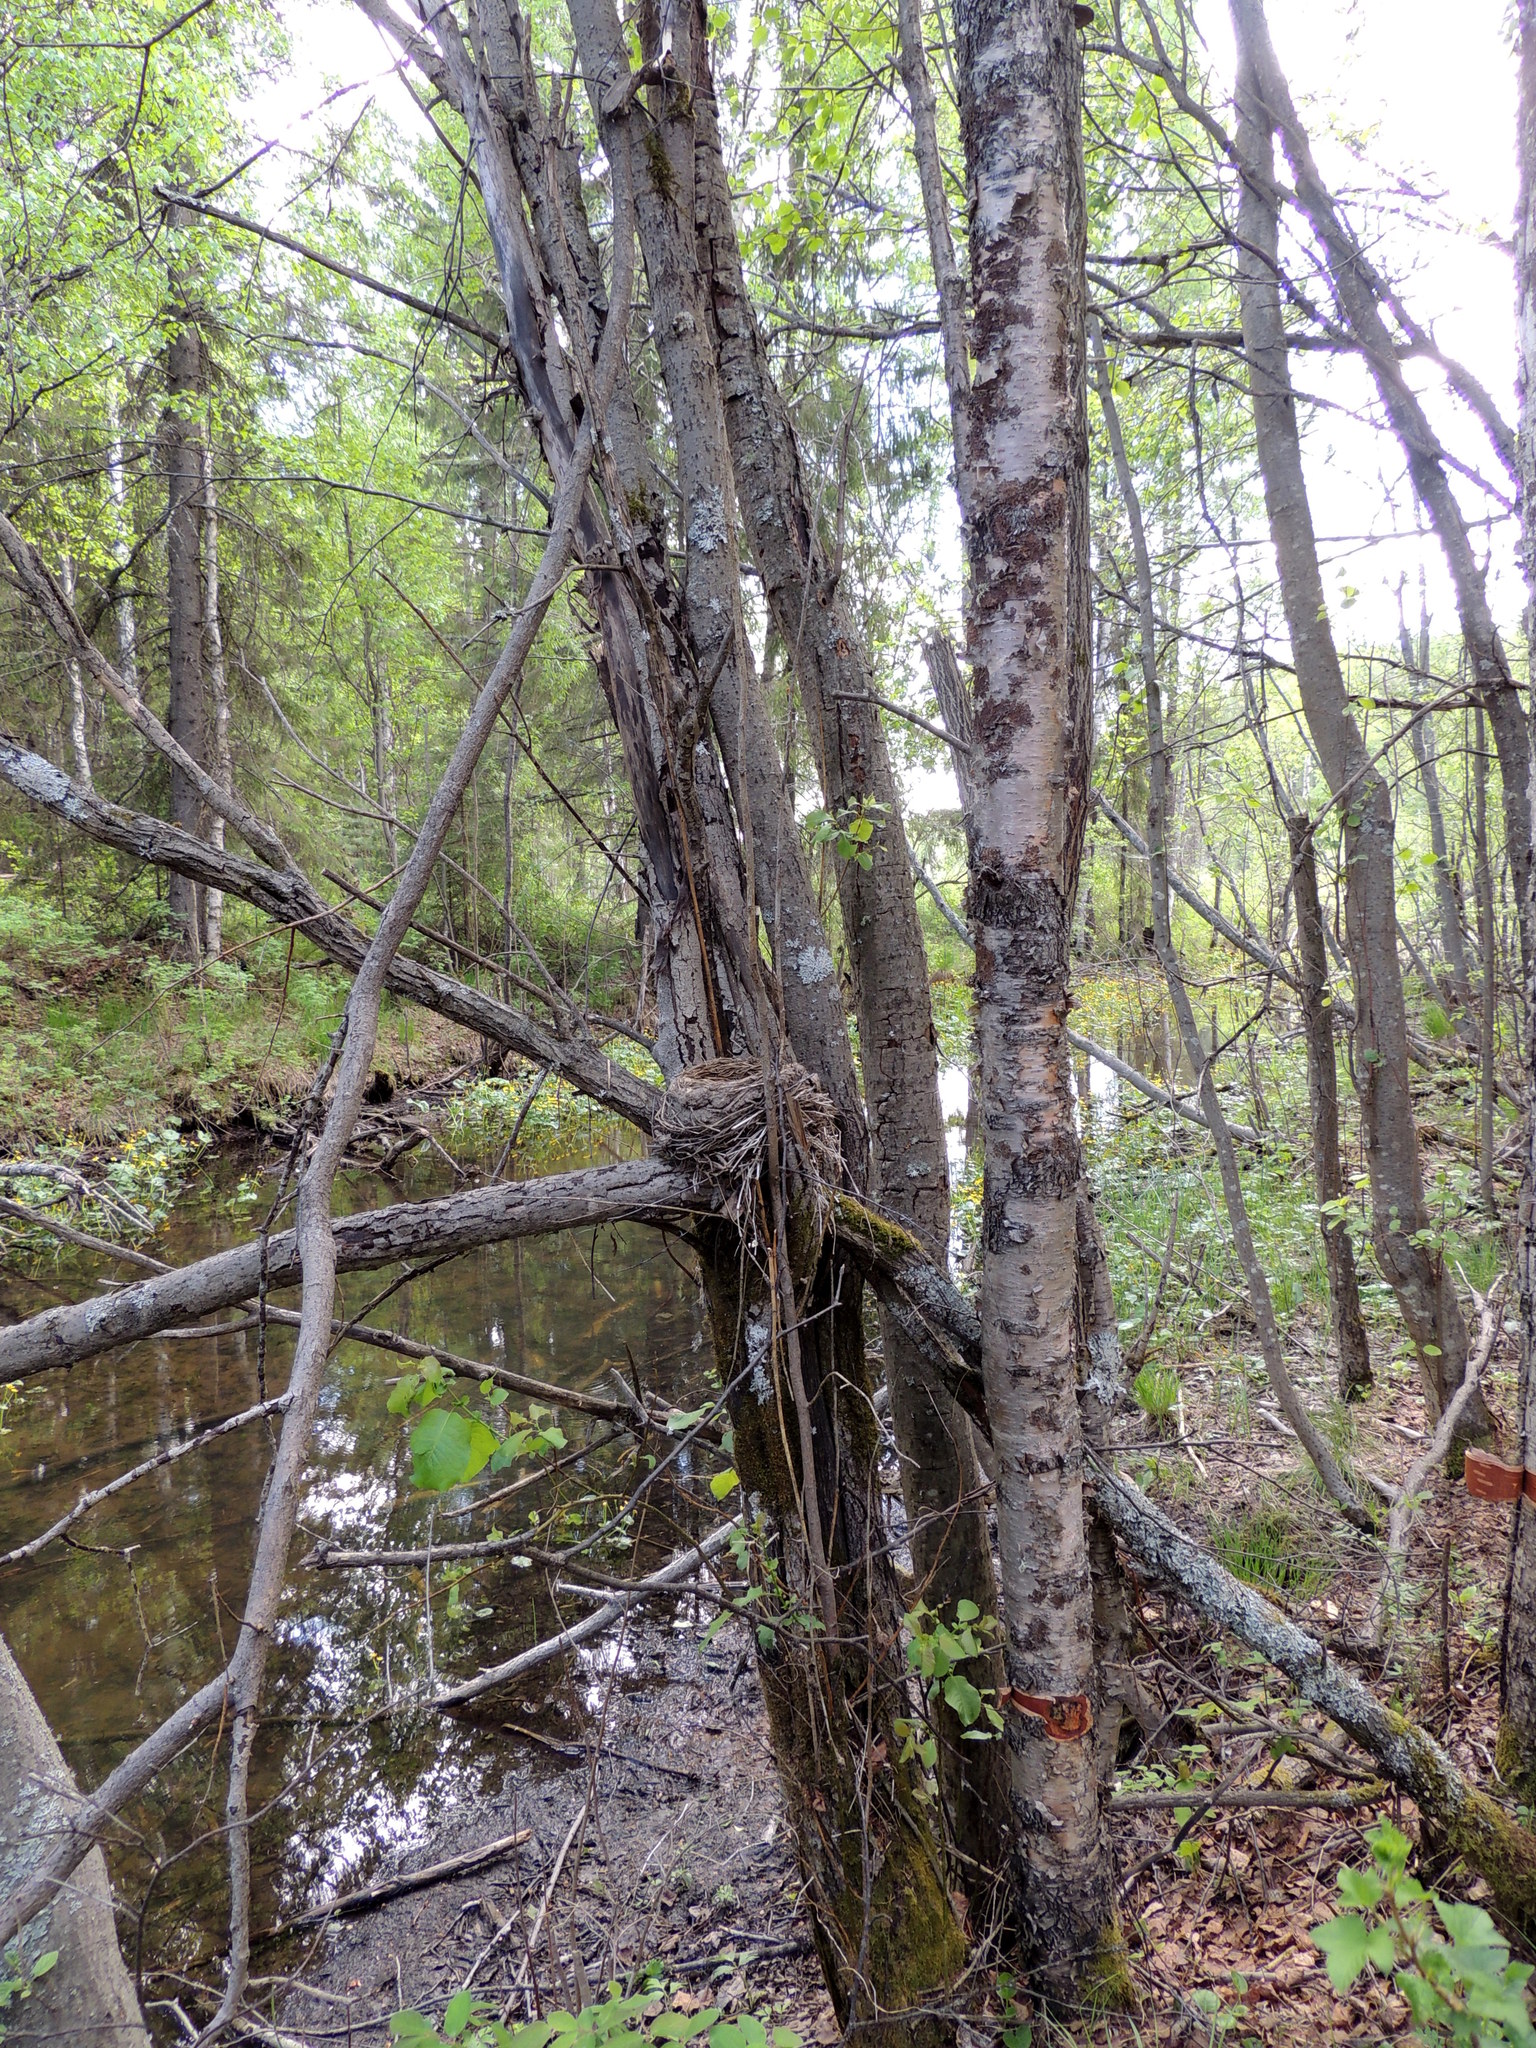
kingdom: Animalia
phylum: Chordata
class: Aves
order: Passeriformes
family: Turdidae
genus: Turdus
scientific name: Turdus pilaris
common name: Fieldfare
